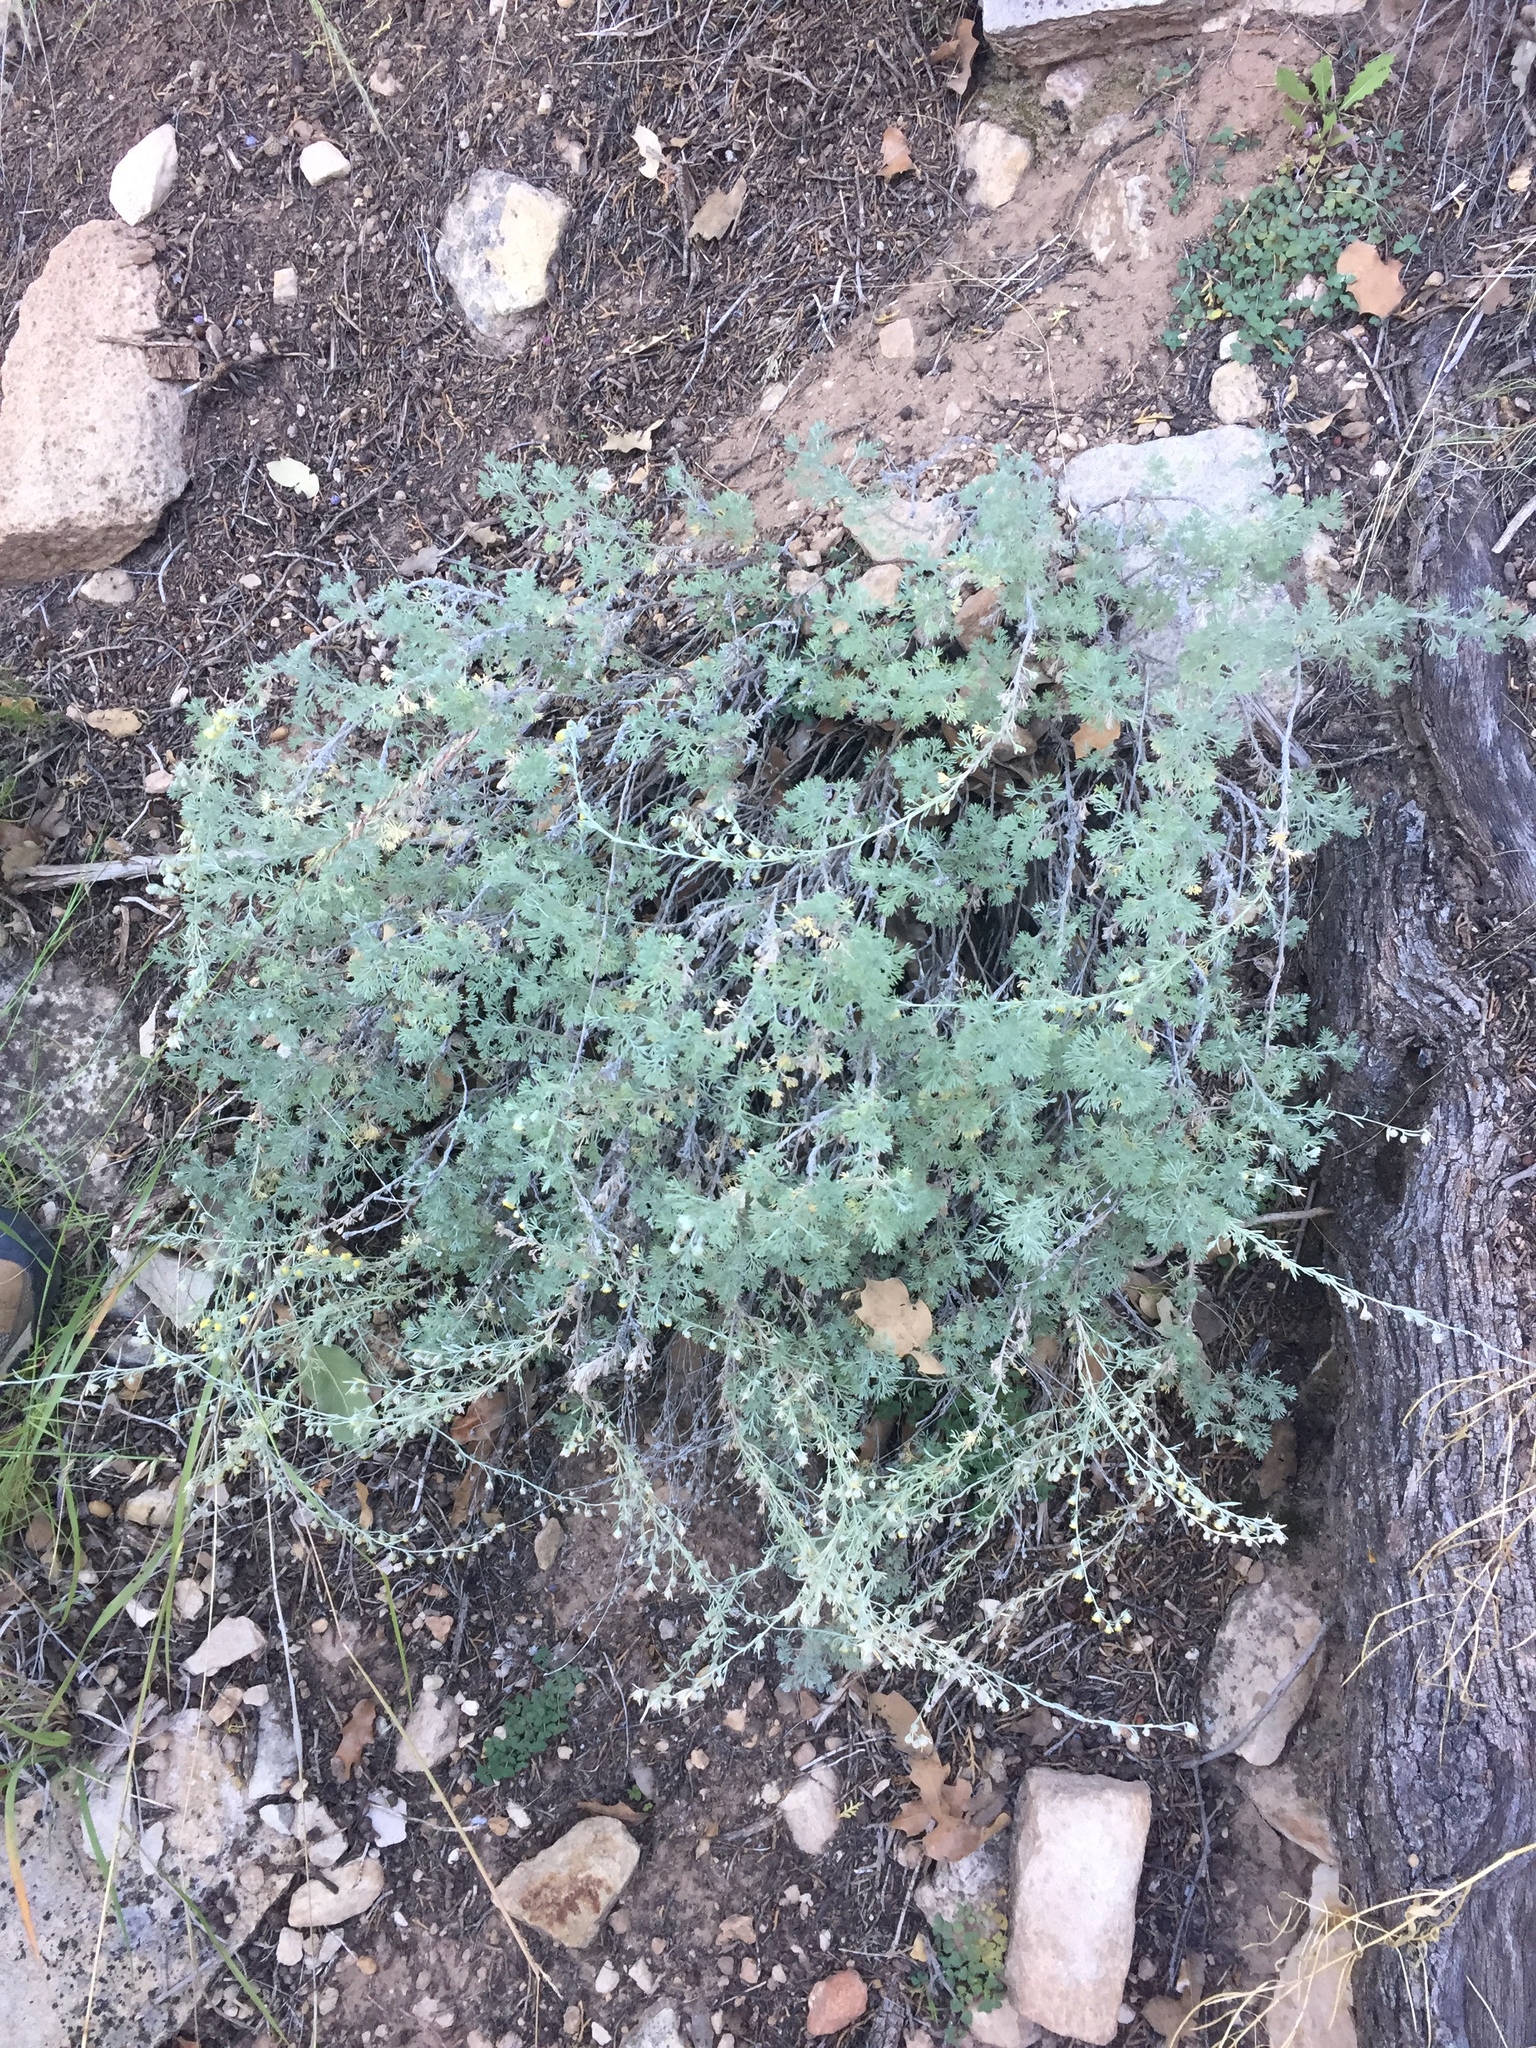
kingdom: Plantae
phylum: Tracheophyta
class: Magnoliopsida
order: Asterales
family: Asteraceae
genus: Artemisia
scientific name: Artemisia frigida
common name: Prairie sagewort
